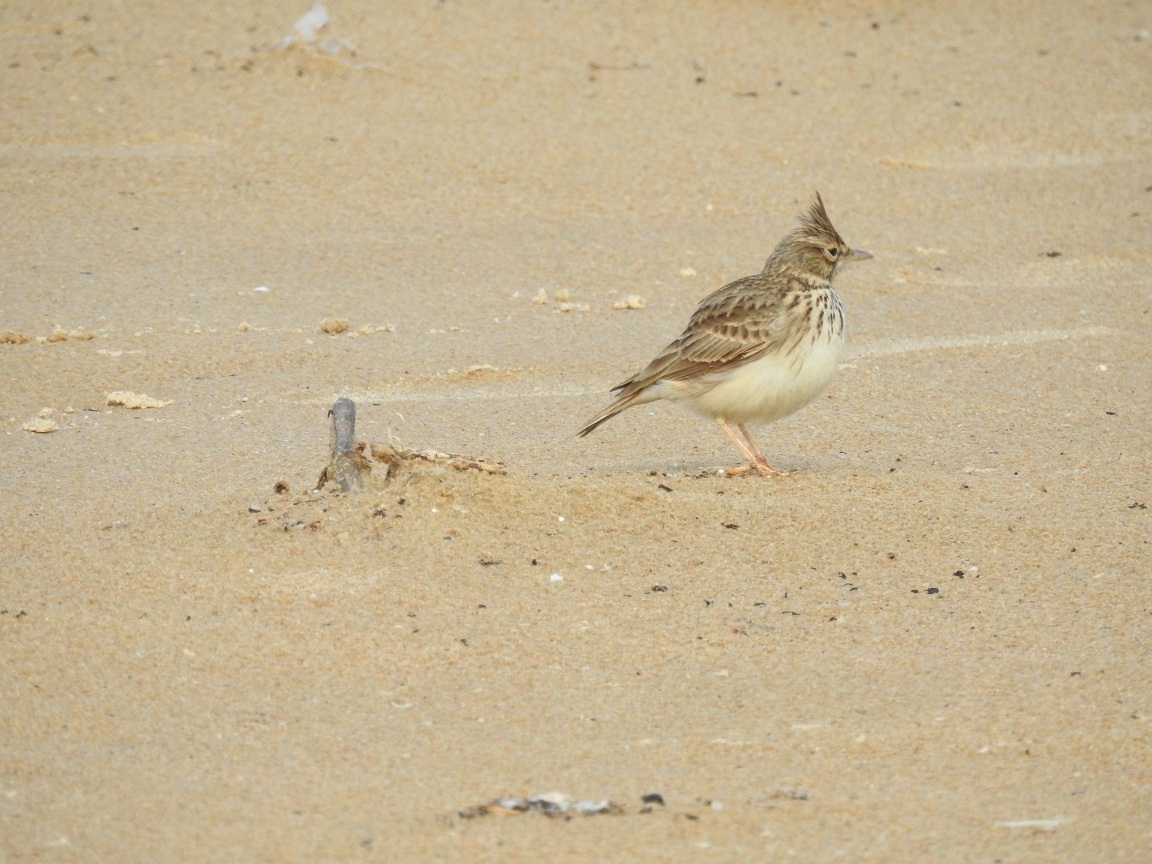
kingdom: Animalia
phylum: Chordata
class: Aves
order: Passeriformes
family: Alaudidae
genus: Galerida
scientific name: Galerida cristata
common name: Crested lark
